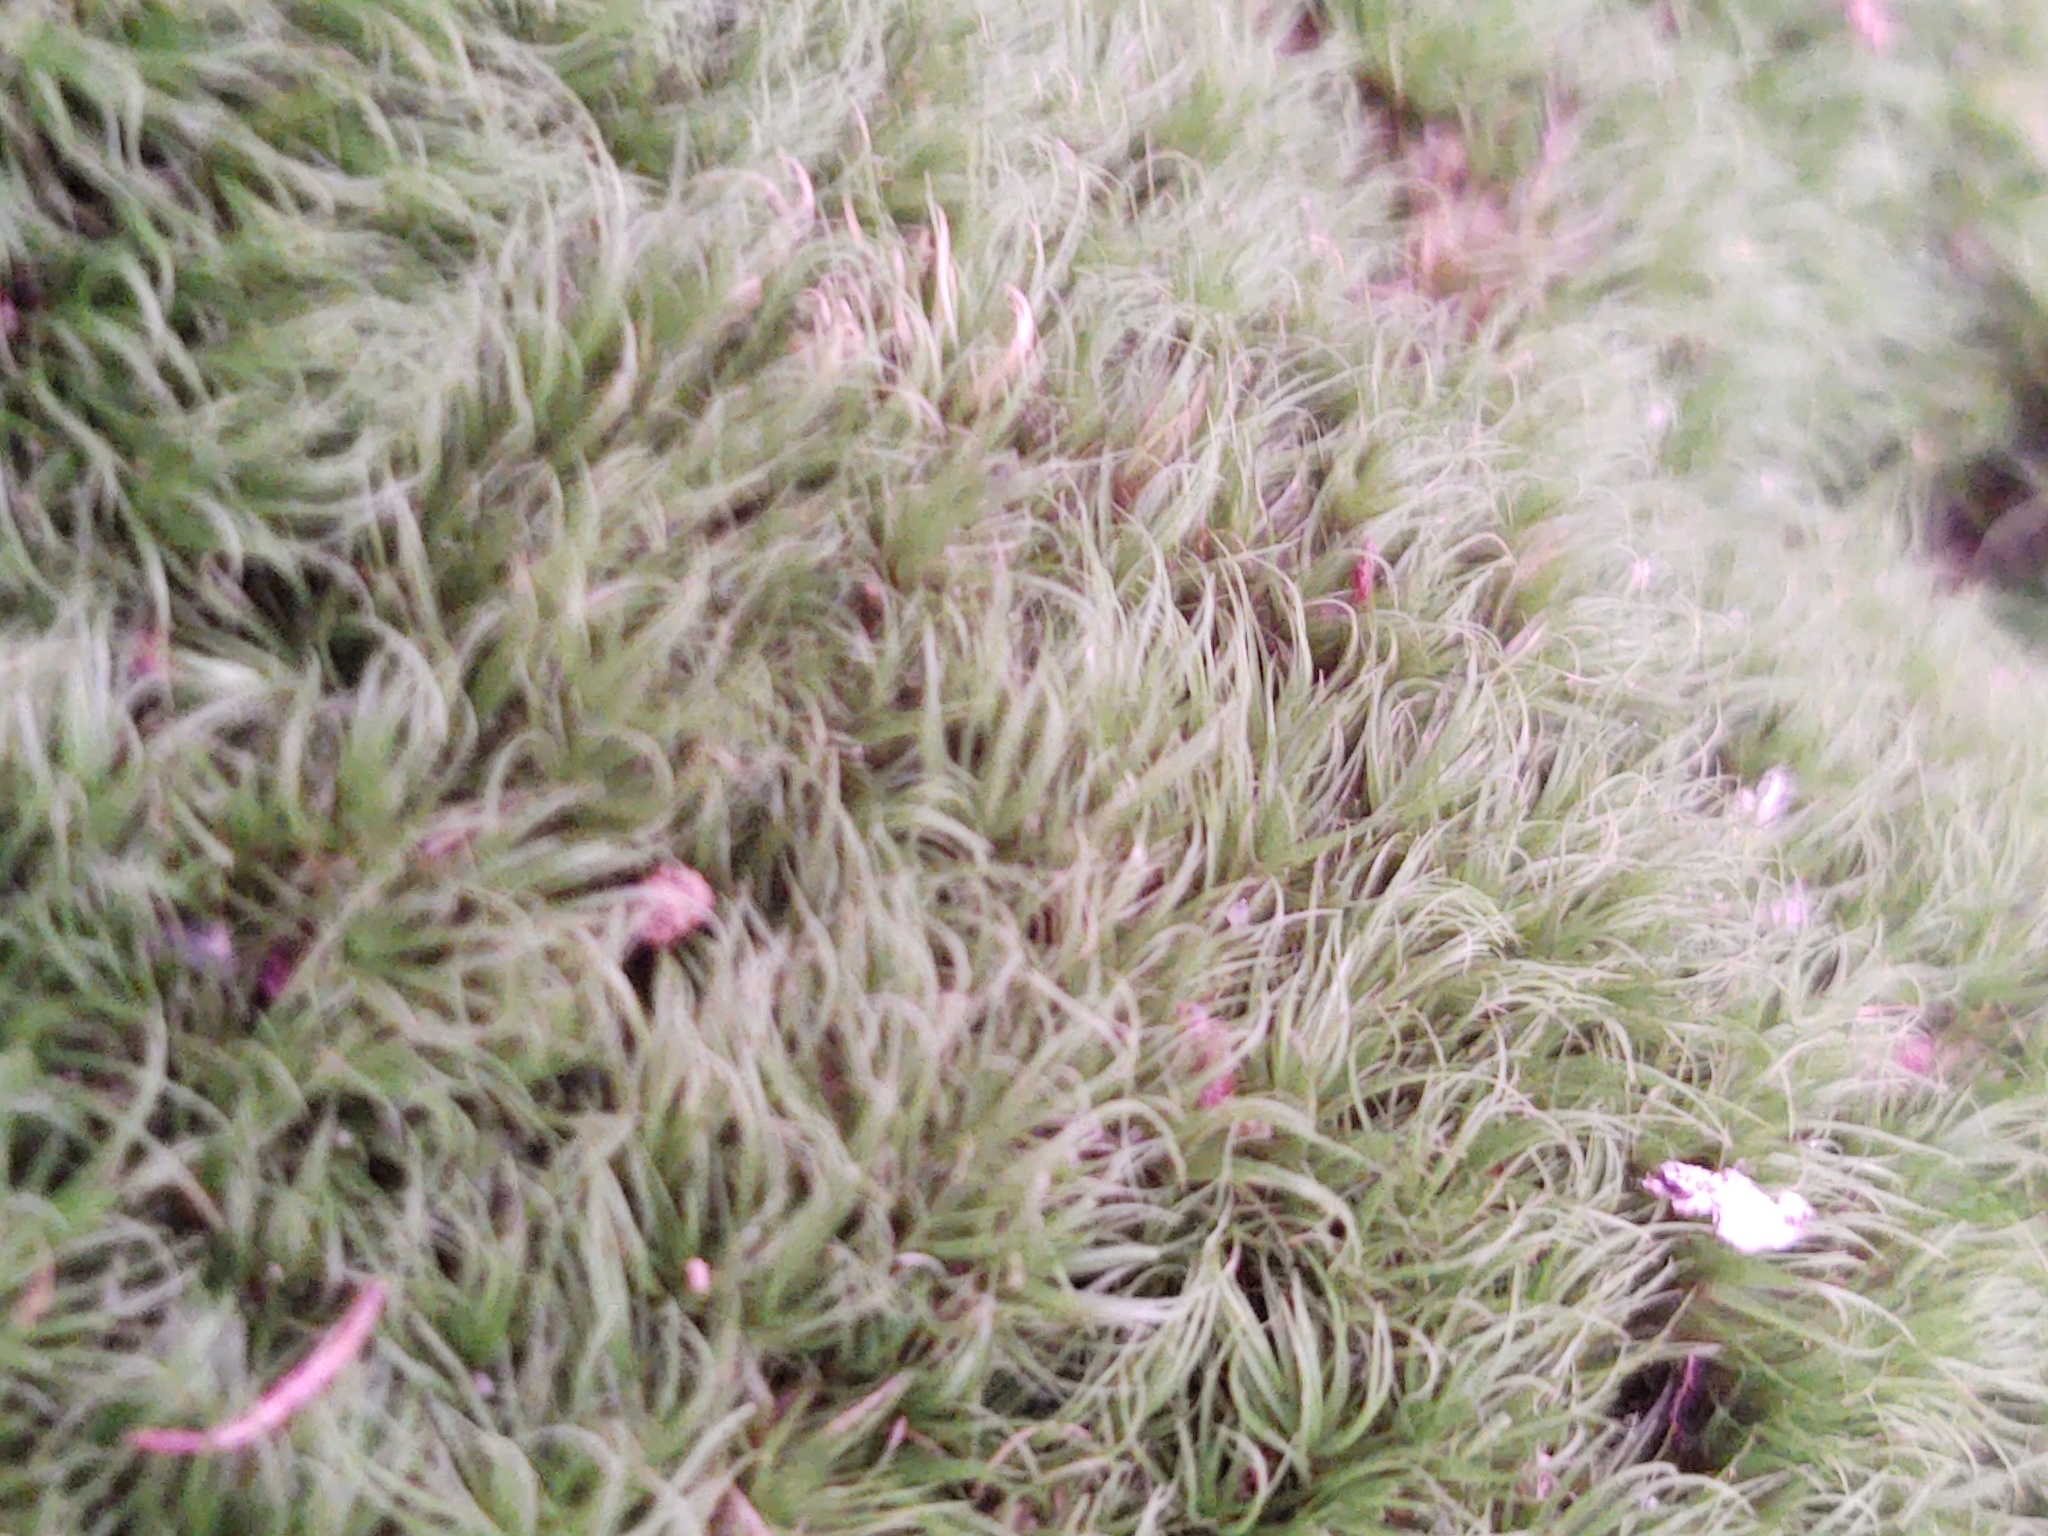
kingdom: Plantae
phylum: Bryophyta
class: Bryopsida
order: Dicranales
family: Dicranaceae
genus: Dicranum
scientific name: Dicranum scoparium
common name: Broom fork-moss
